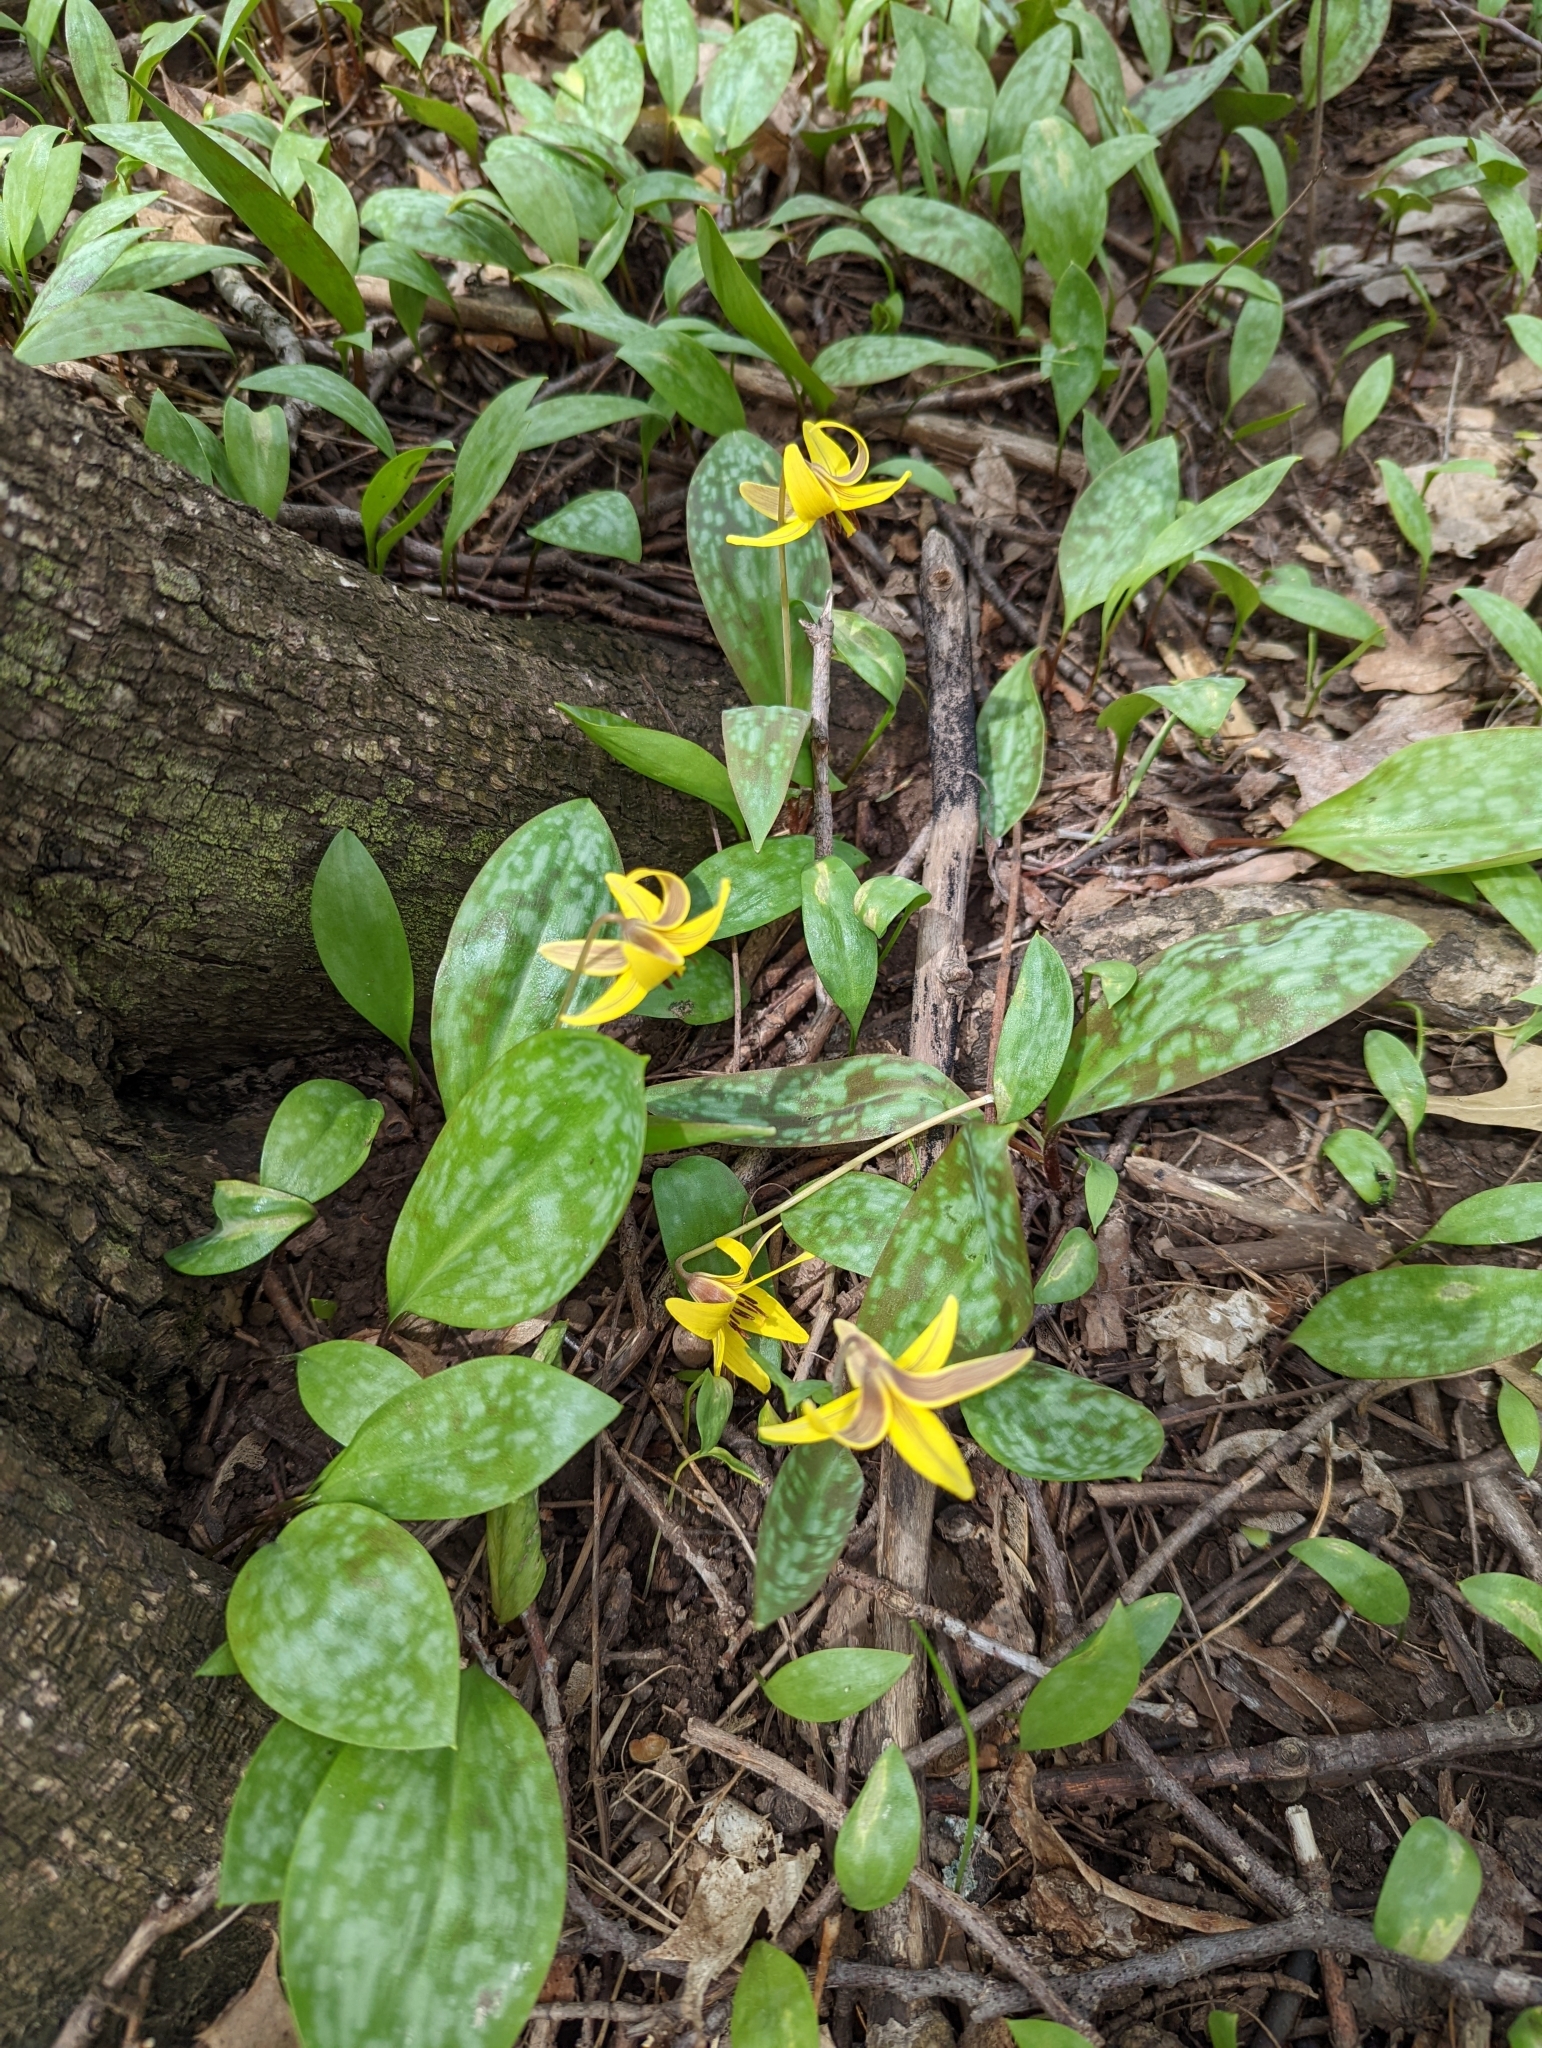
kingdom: Plantae
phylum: Tracheophyta
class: Liliopsida
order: Liliales
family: Liliaceae
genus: Erythronium
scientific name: Erythronium americanum
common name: Yellow adder's-tongue
